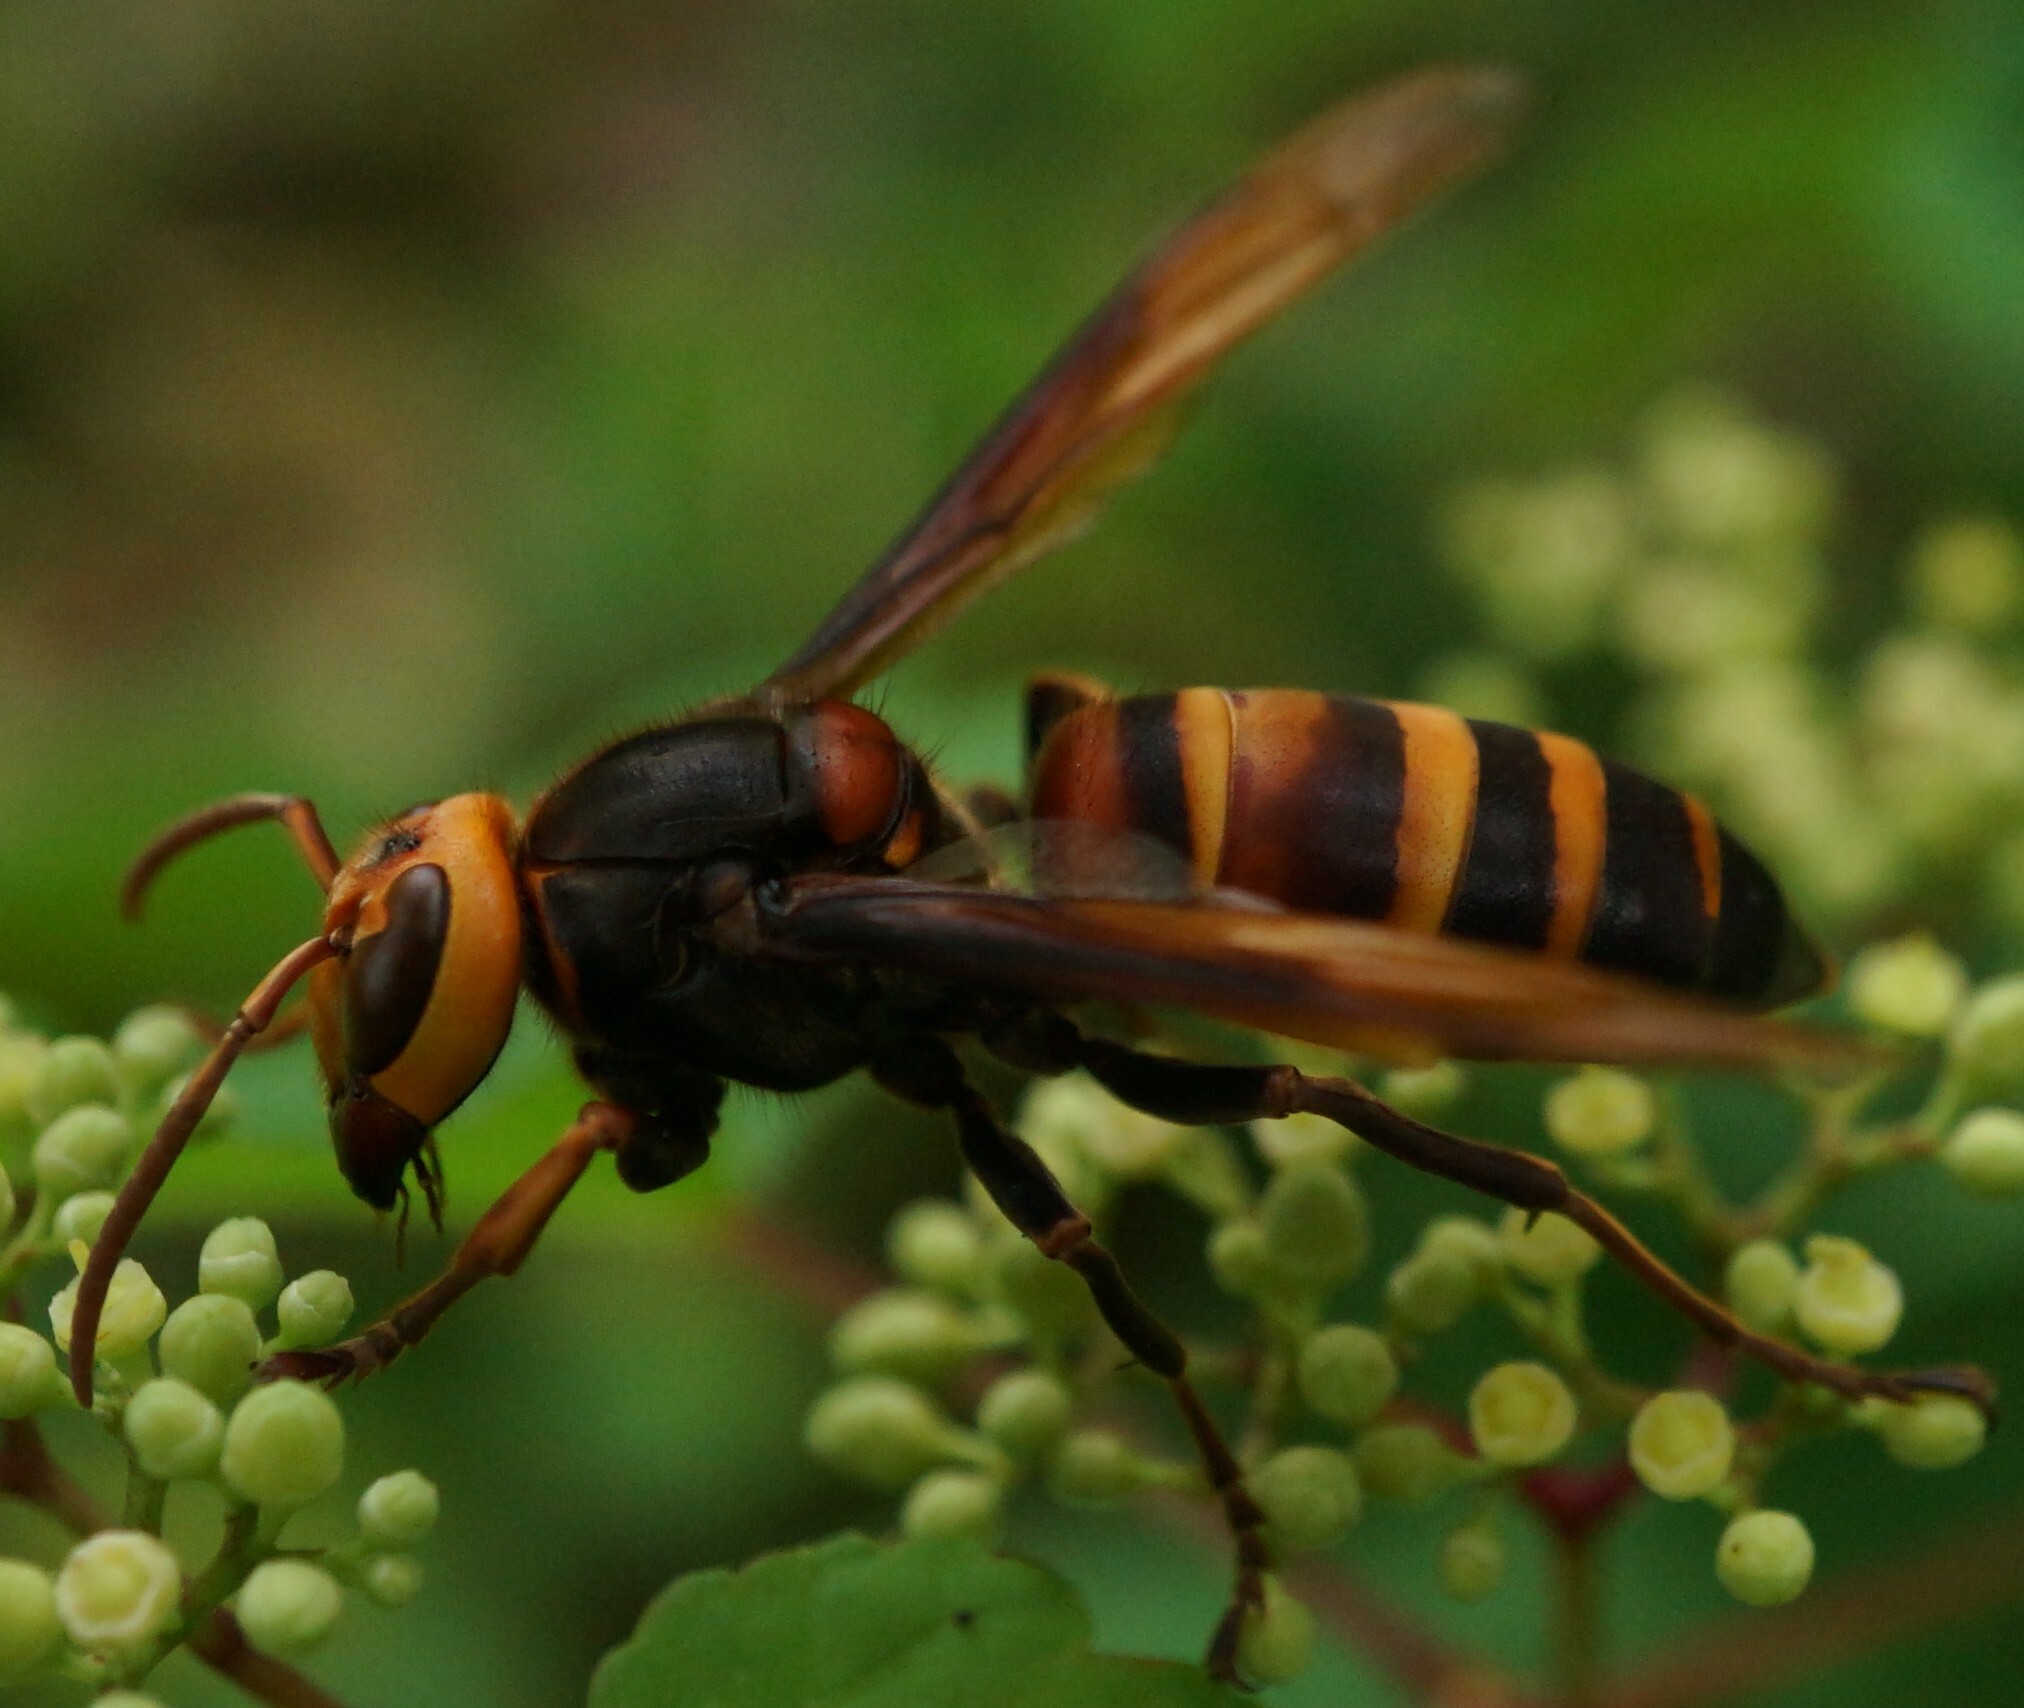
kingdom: Animalia
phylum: Arthropoda
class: Insecta
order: Hymenoptera
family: Vespidae
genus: Vespa
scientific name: Vespa ducalis
